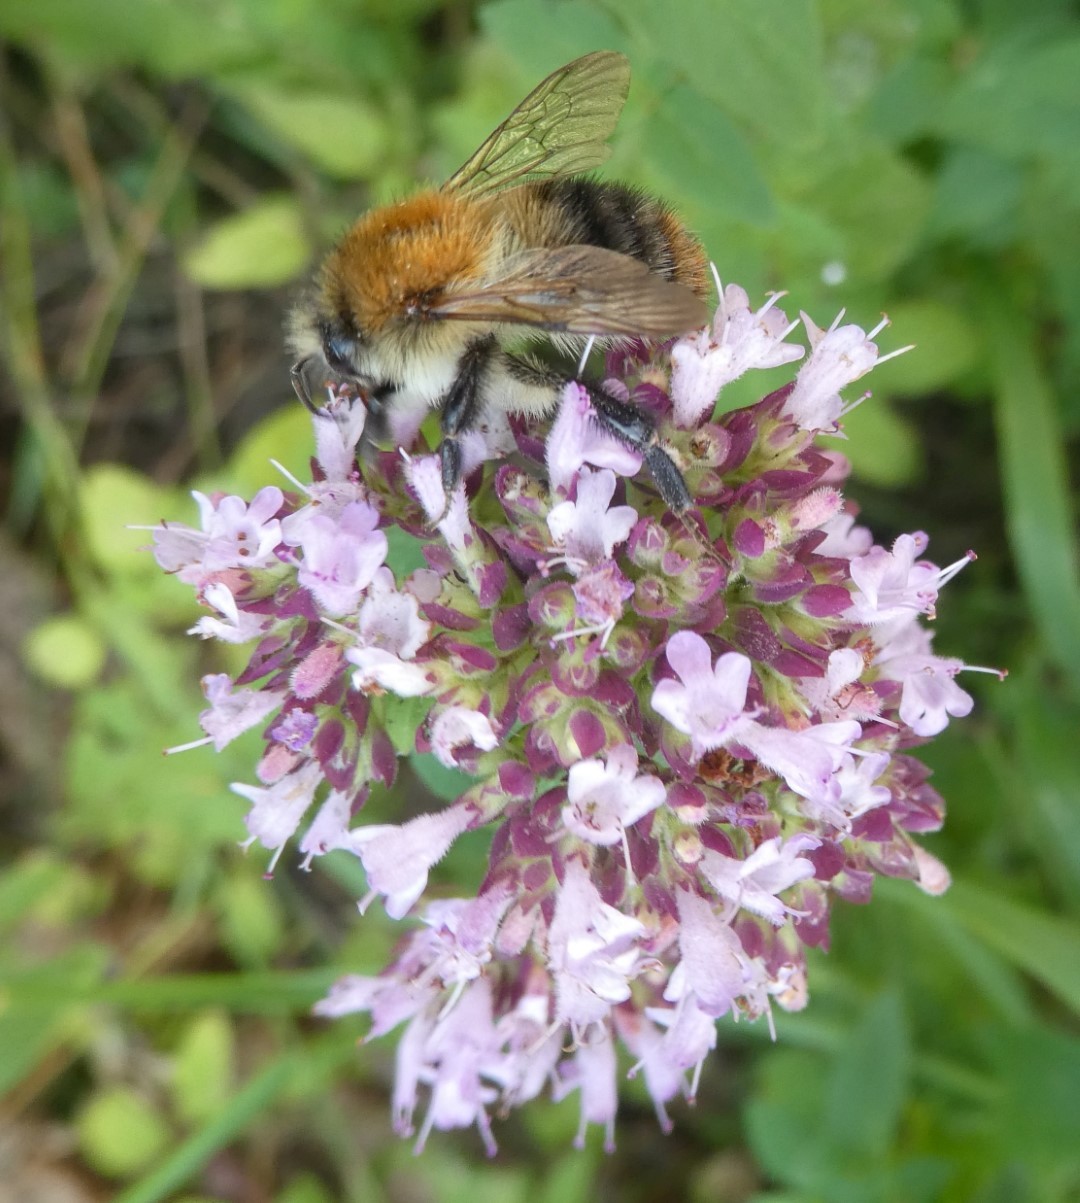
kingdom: Animalia
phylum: Arthropoda
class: Insecta
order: Hymenoptera
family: Apidae
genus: Bombus
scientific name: Bombus pascuorum
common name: Common carder bee
